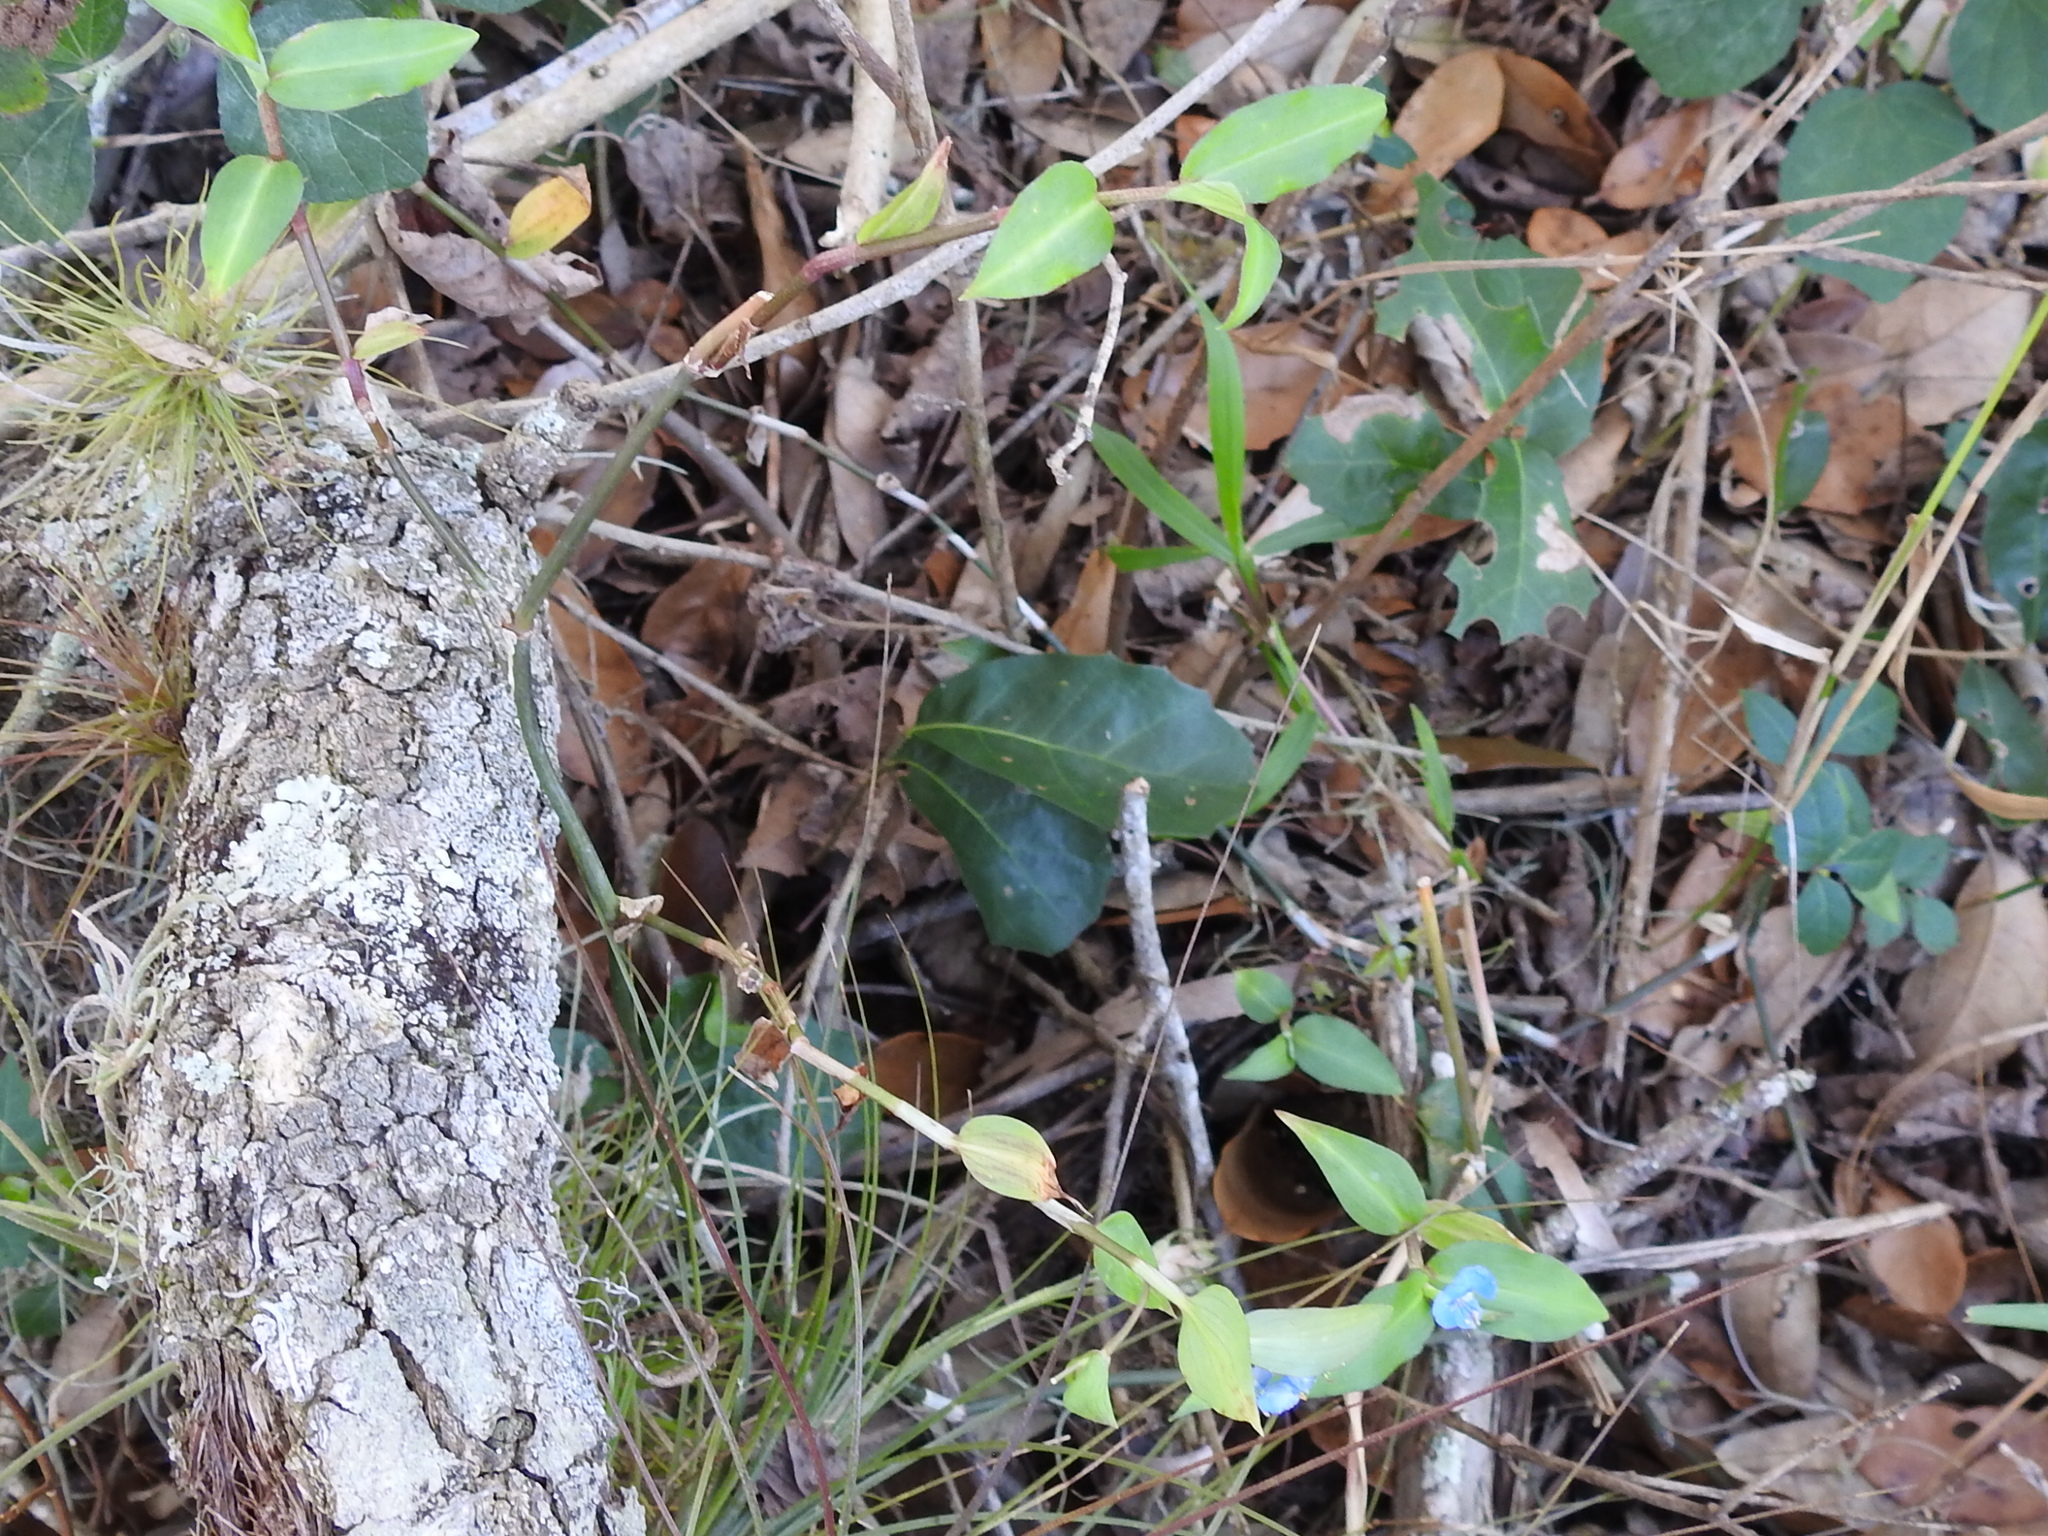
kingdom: Plantae
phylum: Tracheophyta
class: Liliopsida
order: Commelinales
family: Commelinaceae
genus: Commelina
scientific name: Commelina diffusa
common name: Climbing dayflower
